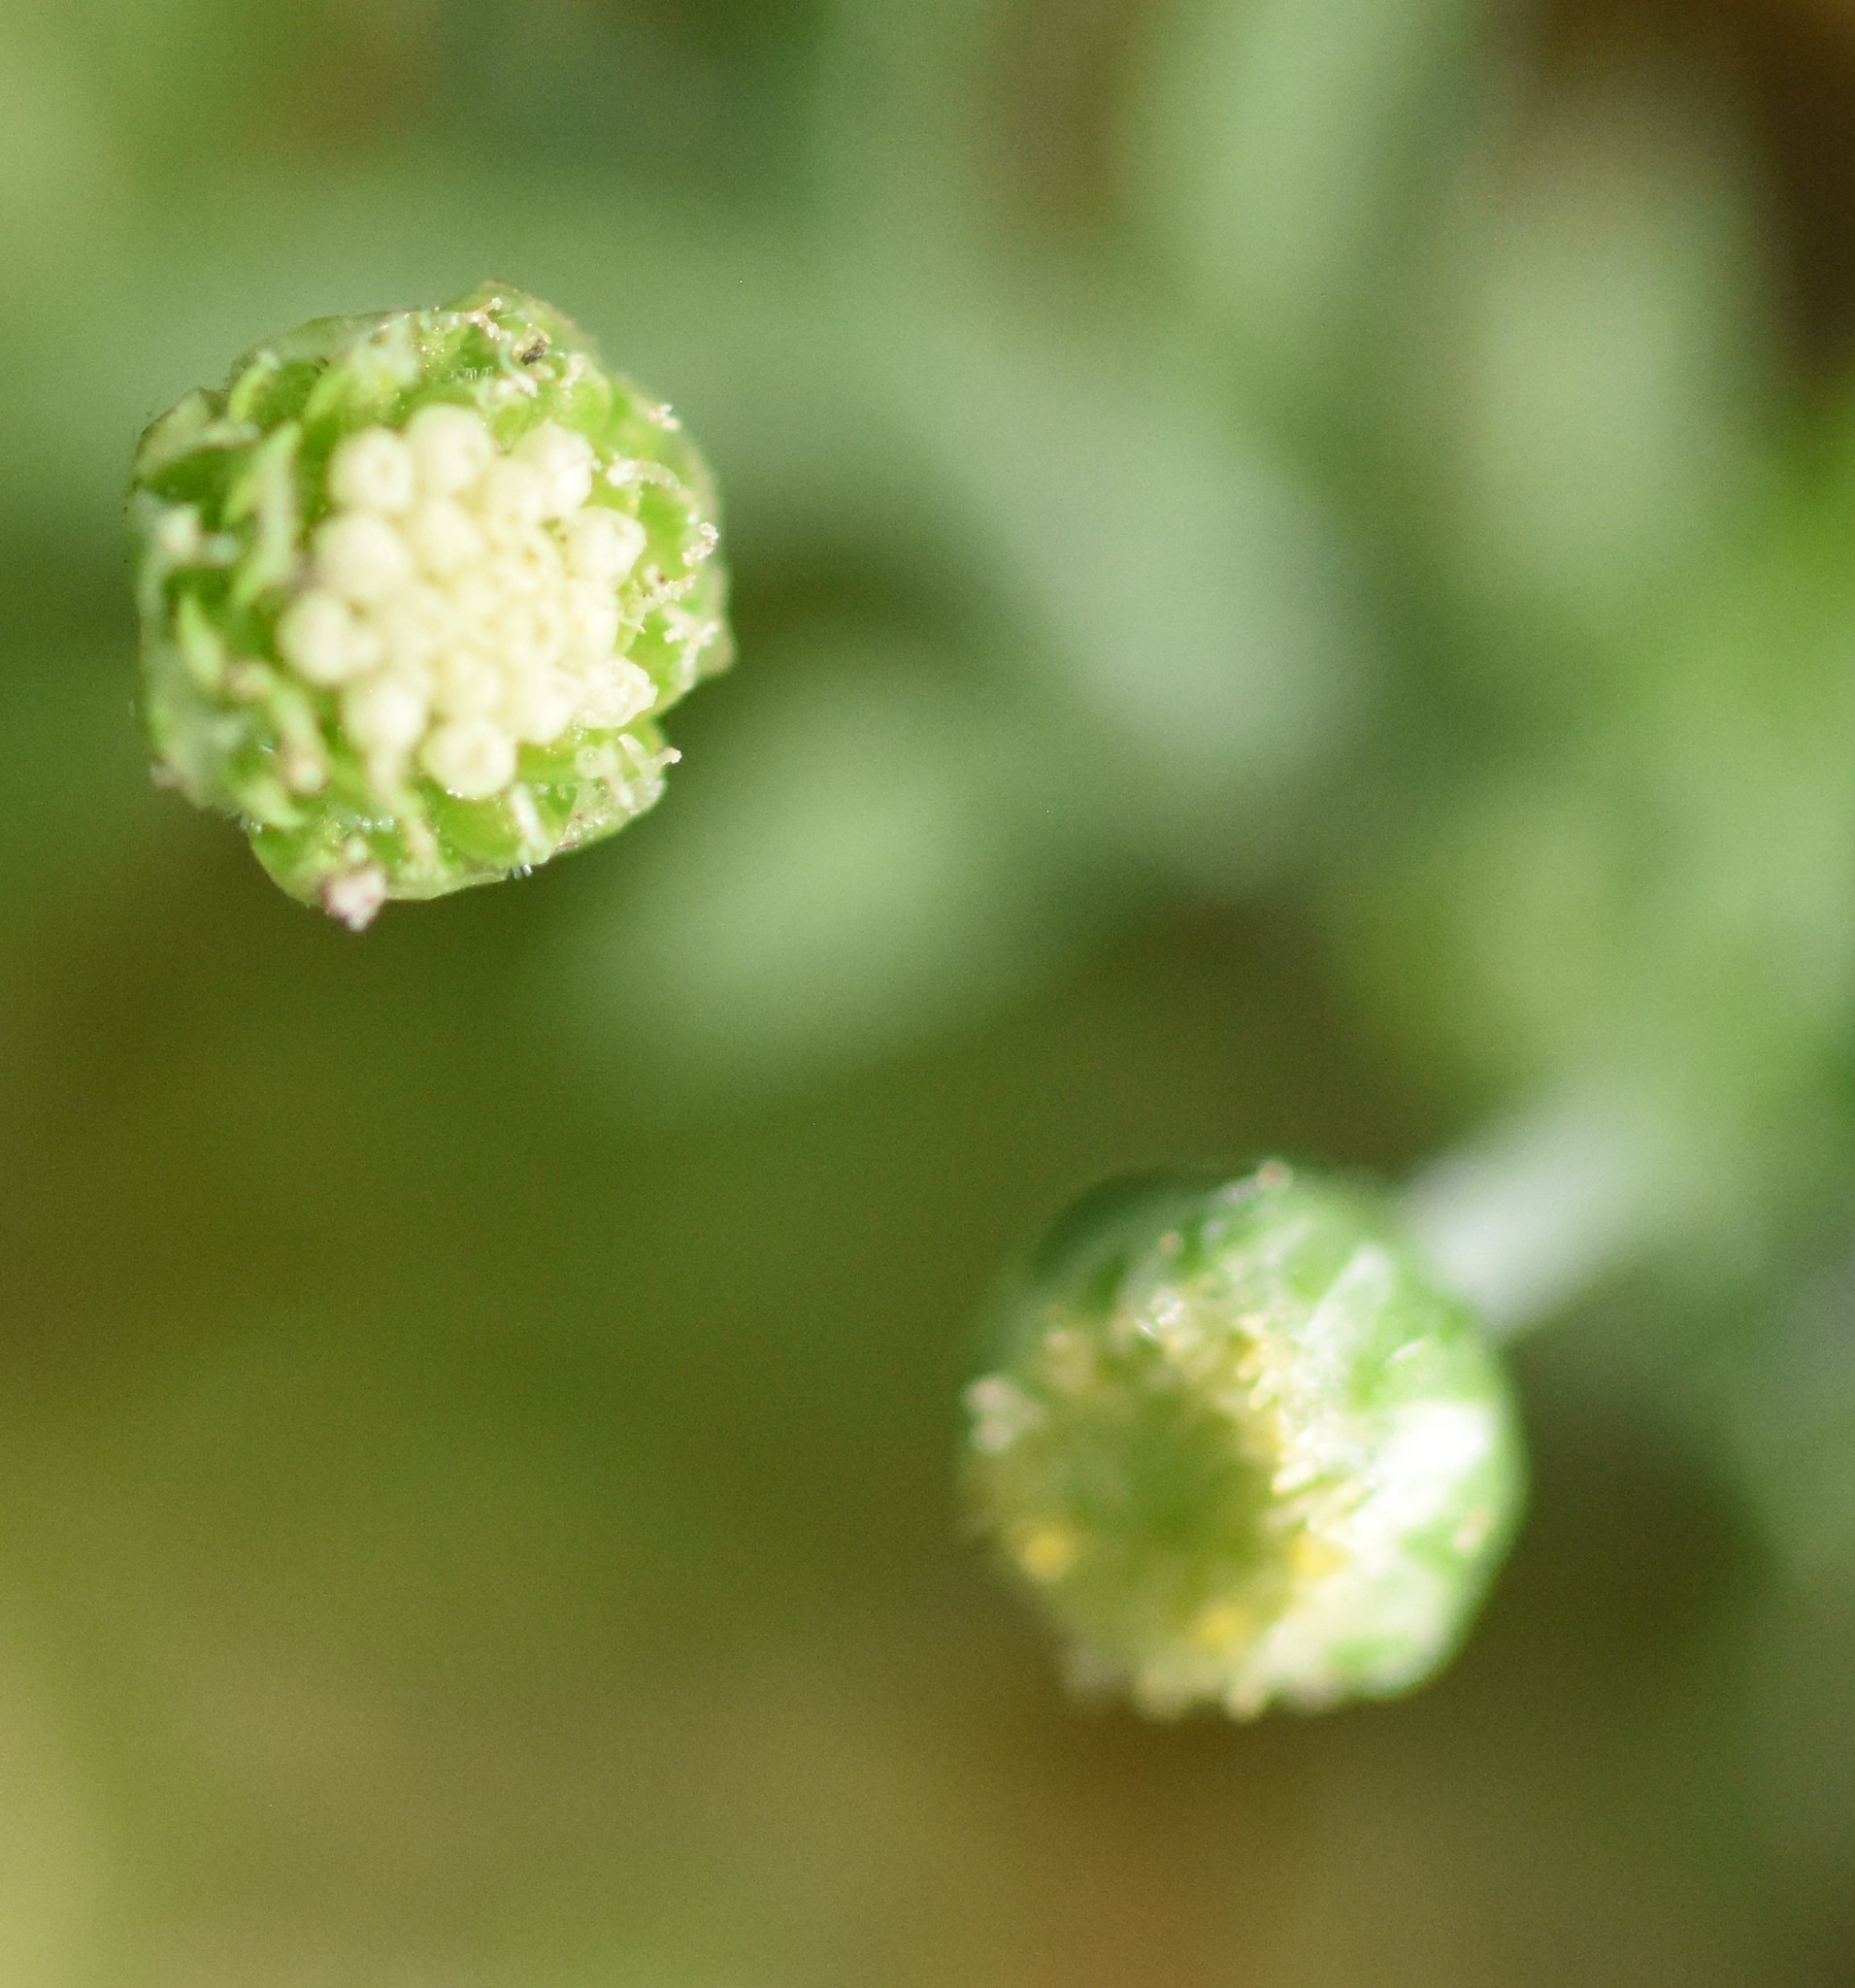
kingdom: Plantae
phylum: Tracheophyta
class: Magnoliopsida
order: Asterales
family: Asteraceae
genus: Cotula
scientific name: Cotula australis
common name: Australian waterbuttons
